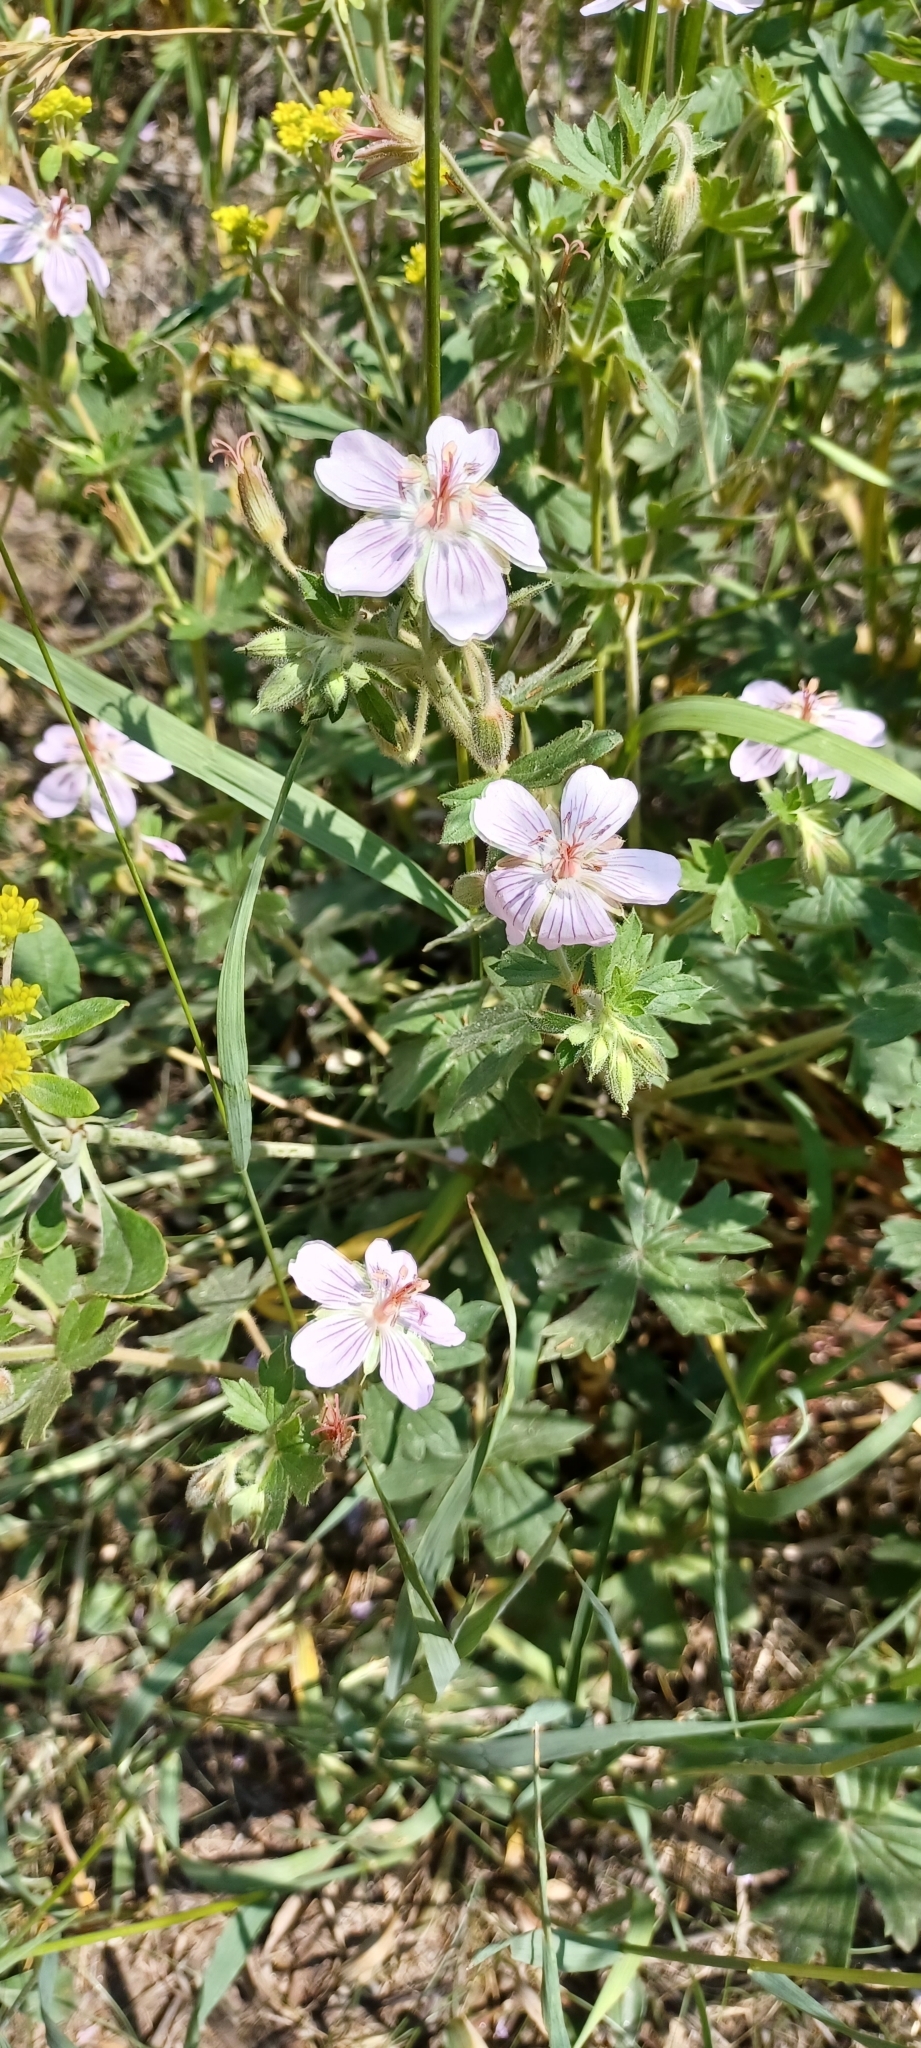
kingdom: Plantae
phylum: Tracheophyta
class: Magnoliopsida
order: Geraniales
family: Geraniaceae
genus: Geranium
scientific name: Geranium caespitosum
